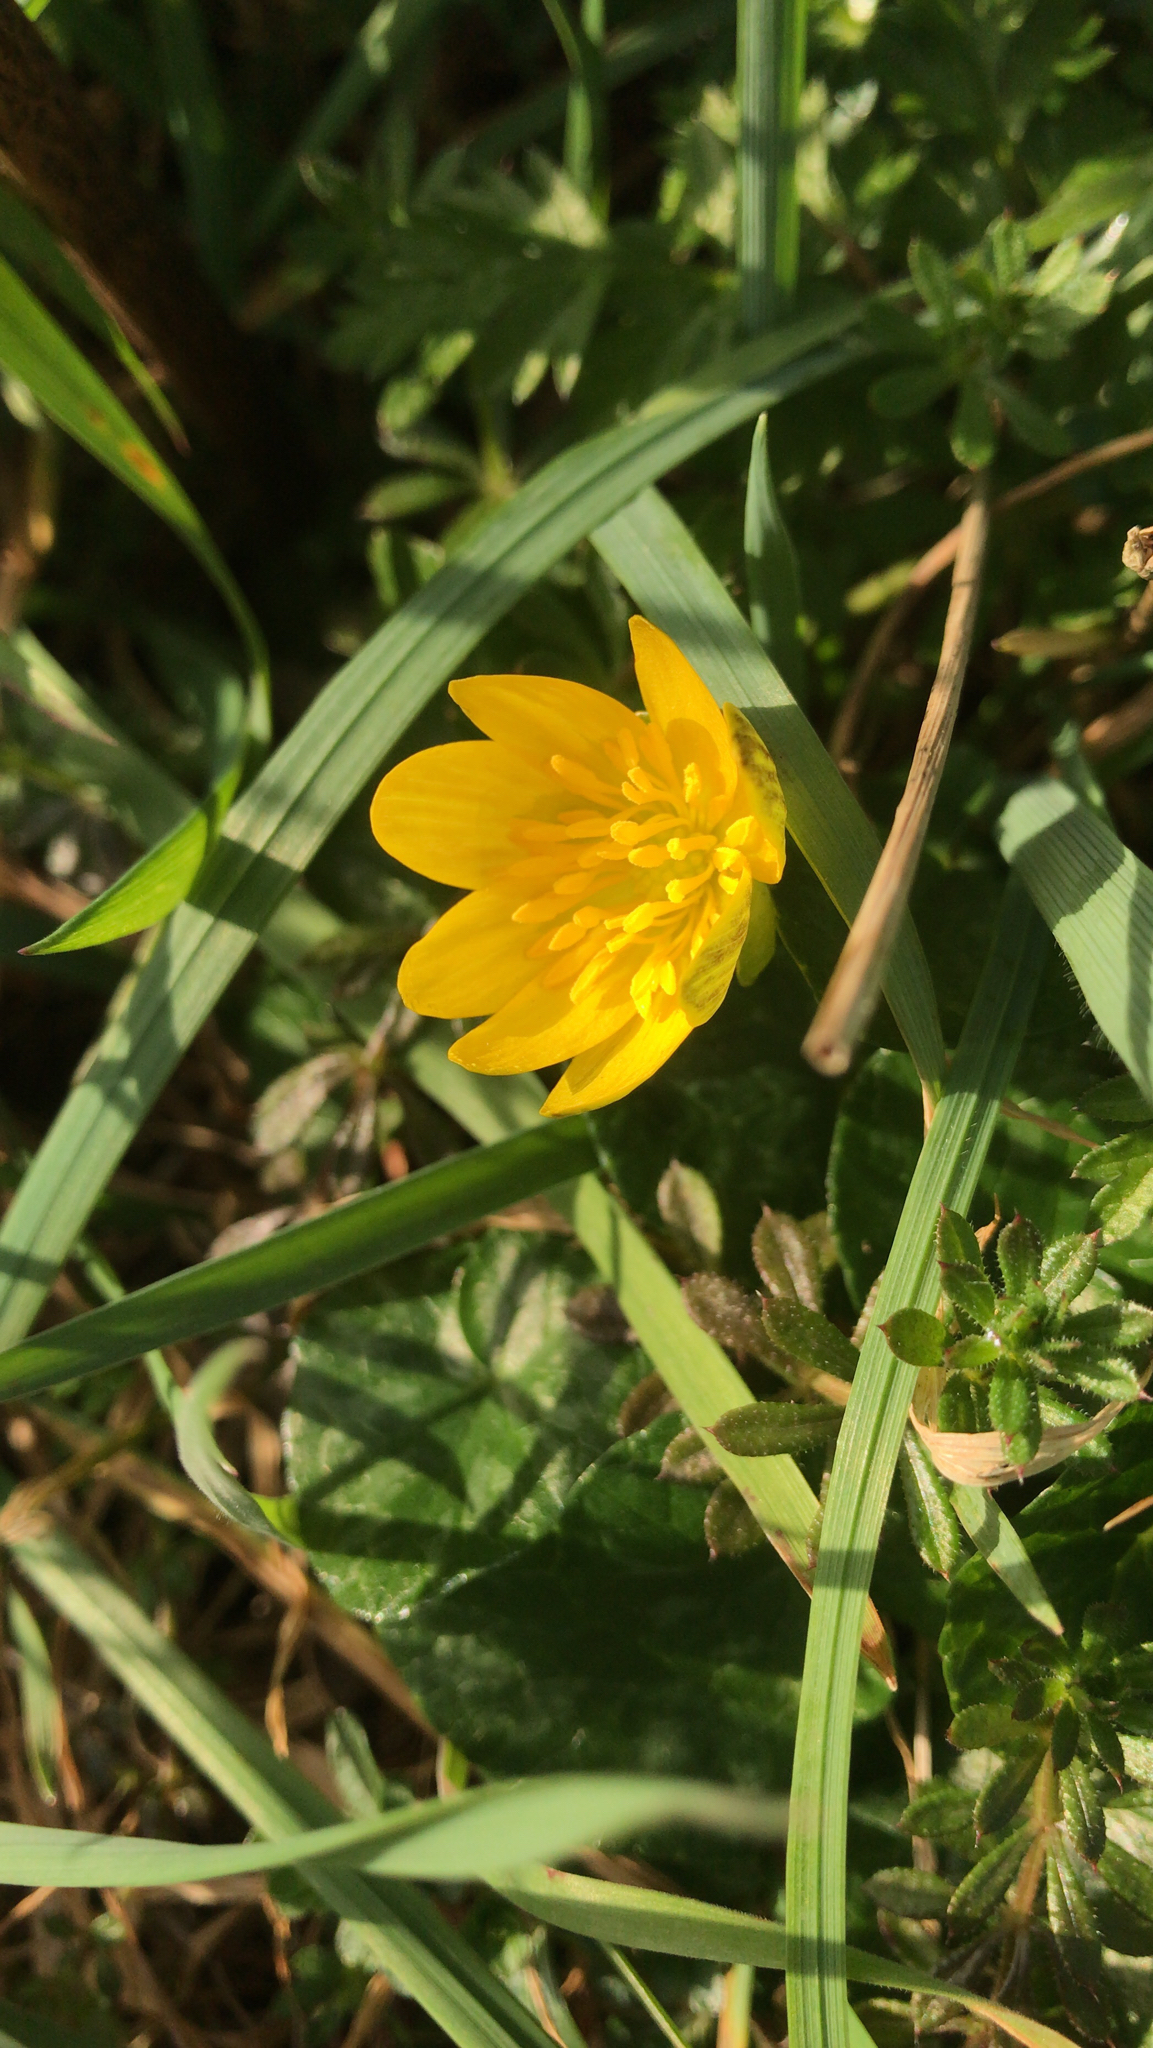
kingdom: Plantae
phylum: Tracheophyta
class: Magnoliopsida
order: Ranunculales
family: Ranunculaceae
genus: Ficaria
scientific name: Ficaria verna
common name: Lesser celandine
